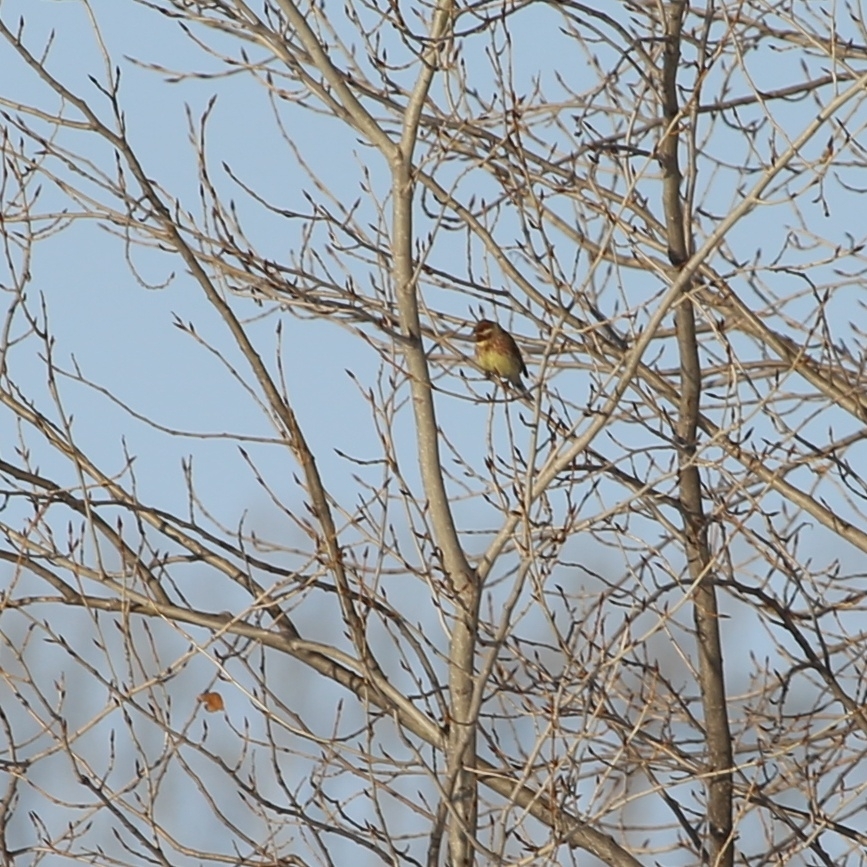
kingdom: Animalia
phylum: Chordata
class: Aves
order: Passeriformes
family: Emberizidae
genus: Emberiza
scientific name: Emberiza citrinella
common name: Yellowhammer
